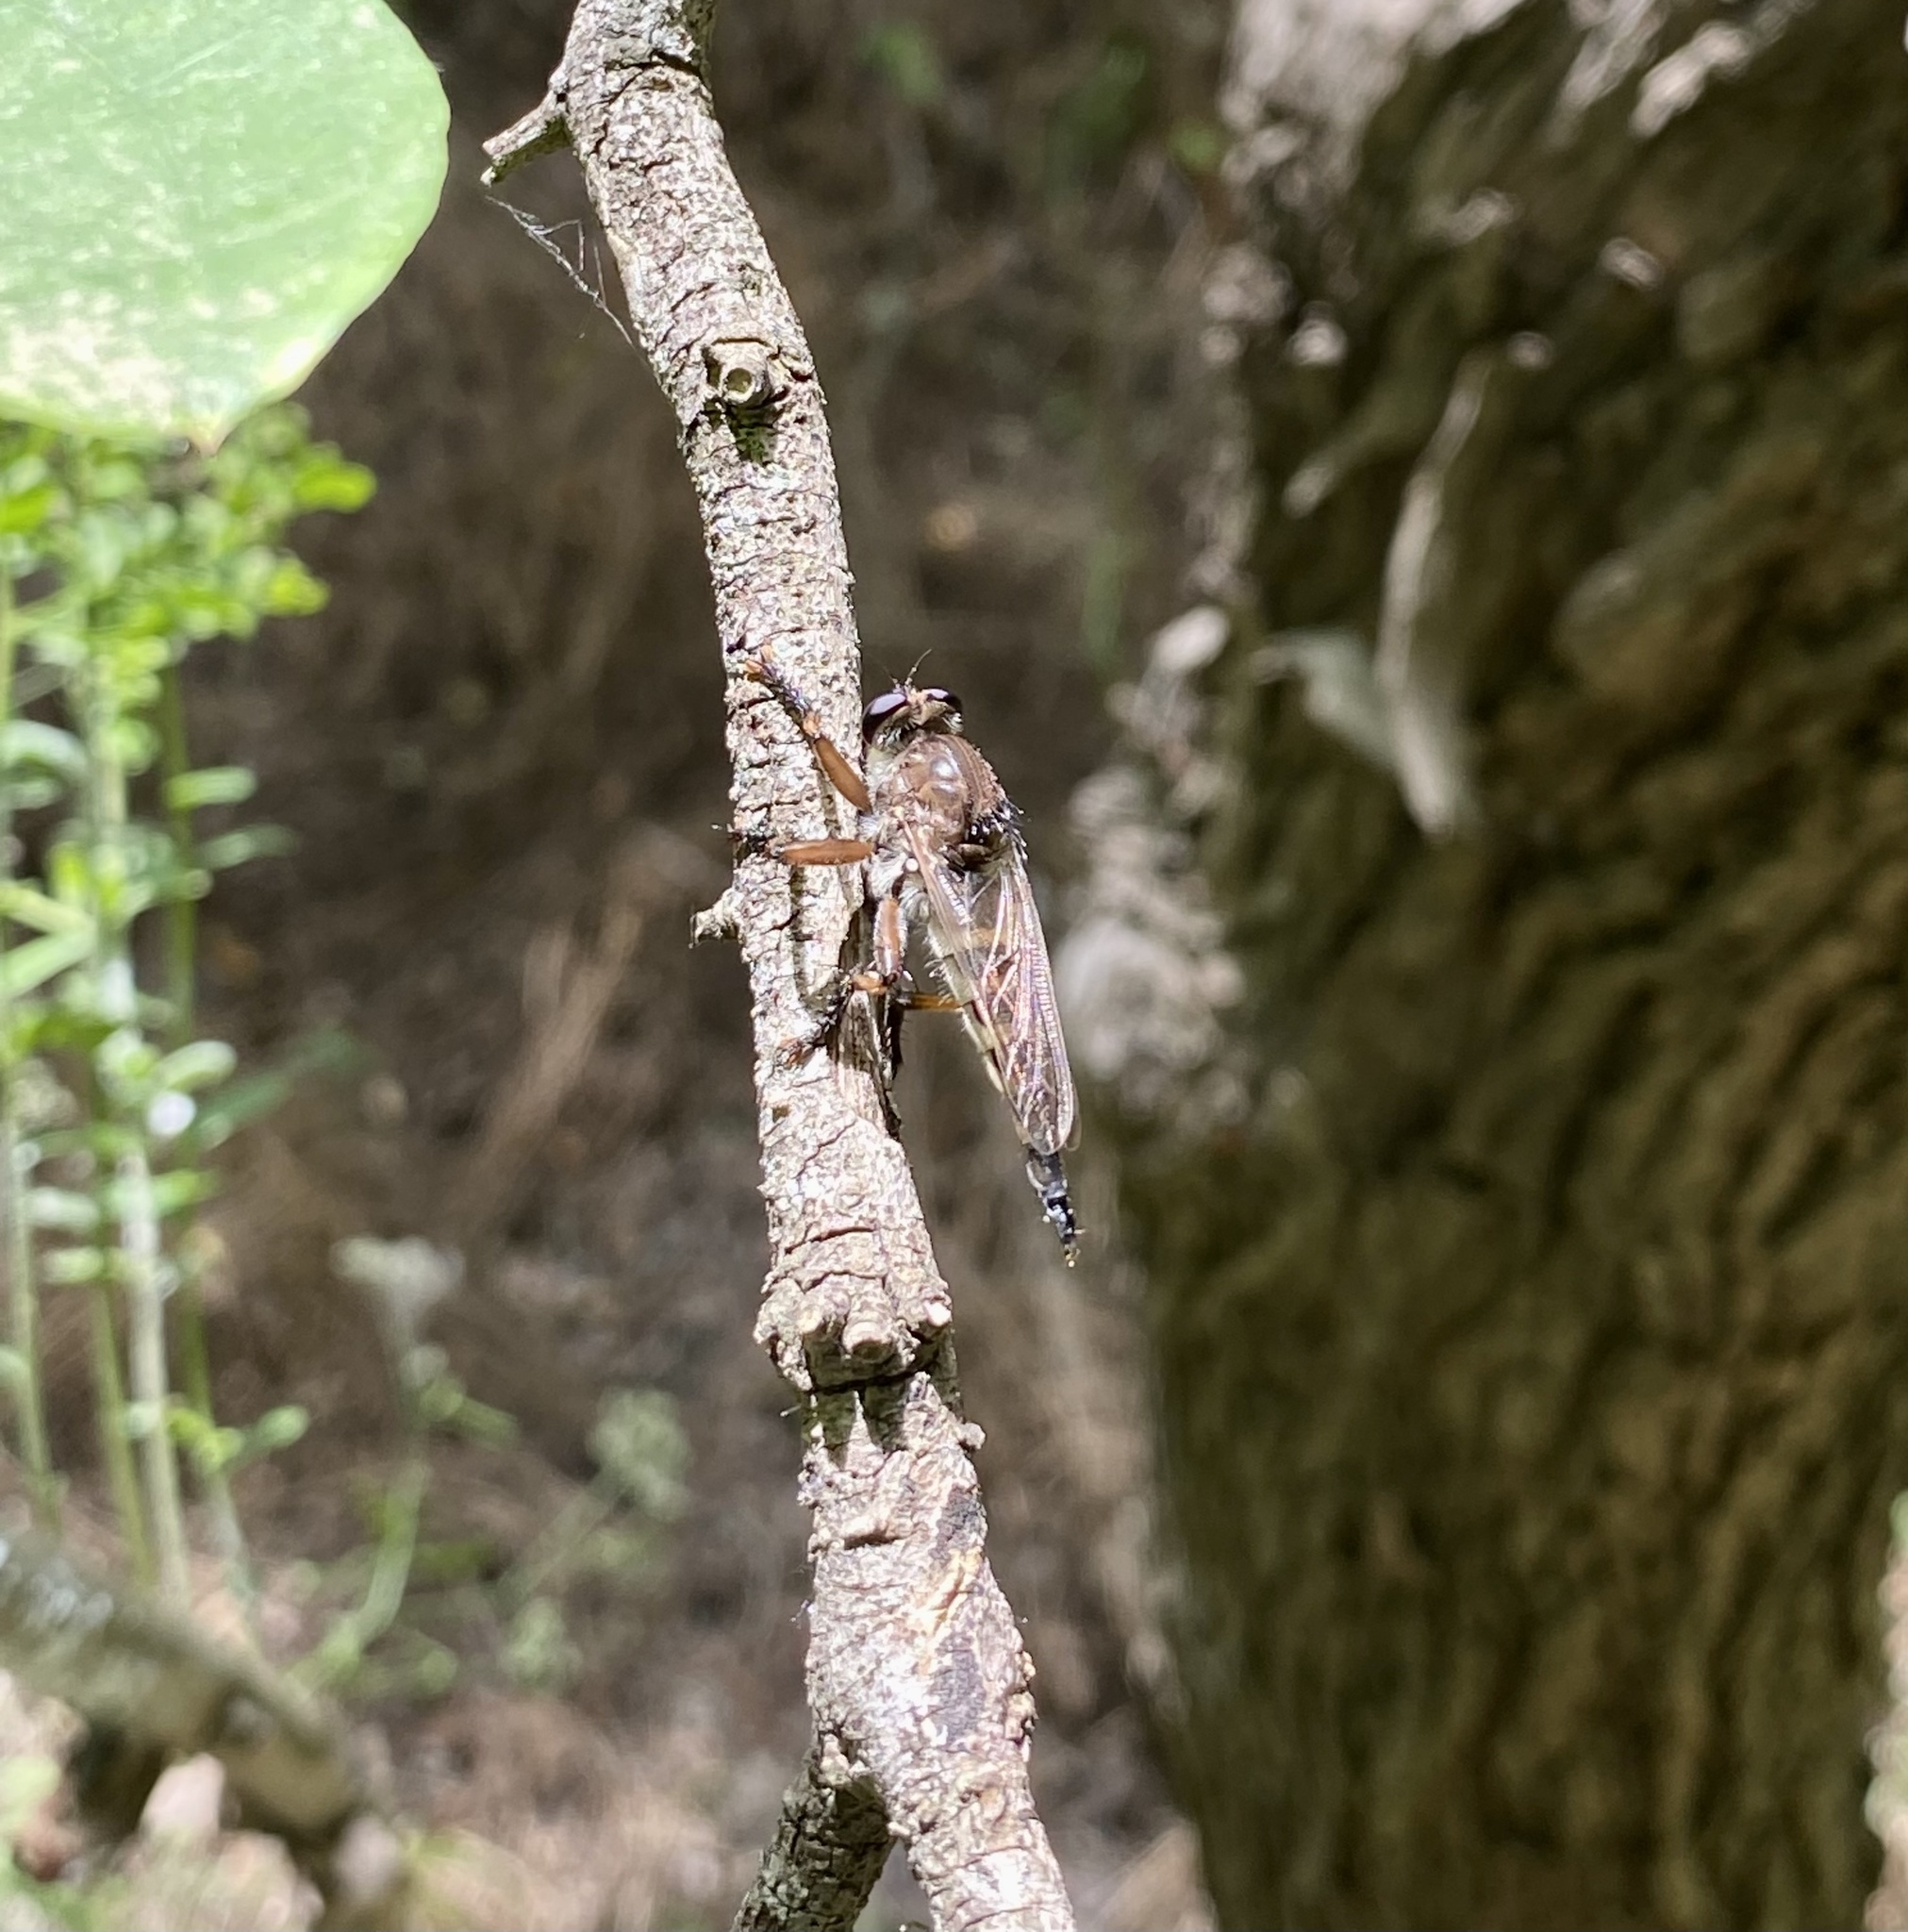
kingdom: Animalia
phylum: Arthropoda
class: Insecta
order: Diptera
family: Asilidae
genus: Promachus
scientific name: Promachus hinei
